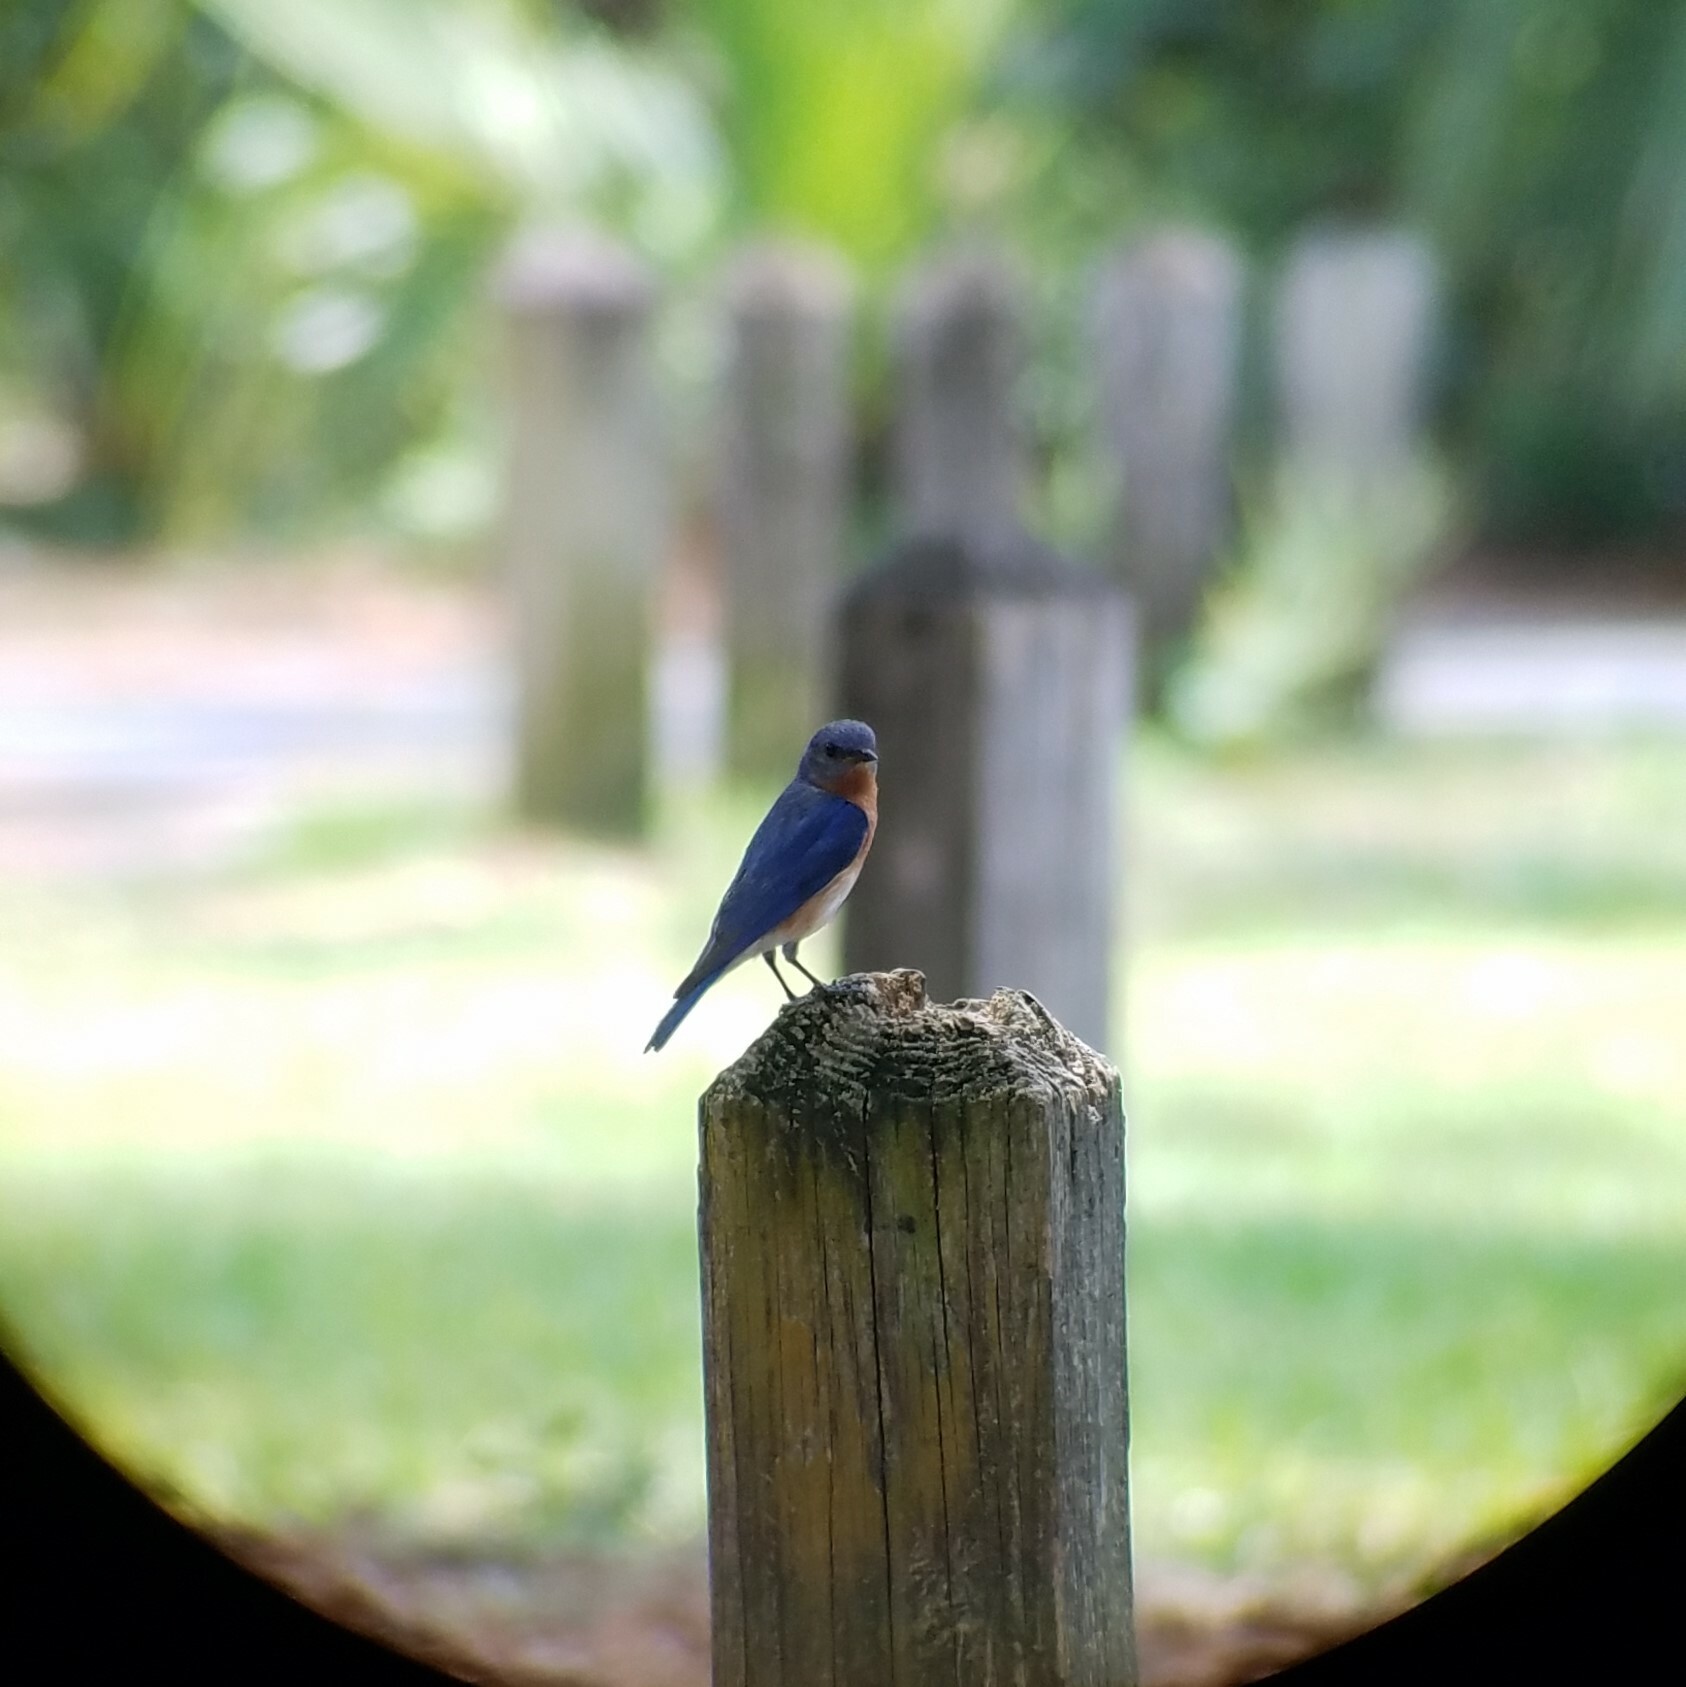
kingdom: Animalia
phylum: Chordata
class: Aves
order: Passeriformes
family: Turdidae
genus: Sialia
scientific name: Sialia sialis
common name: Eastern bluebird
